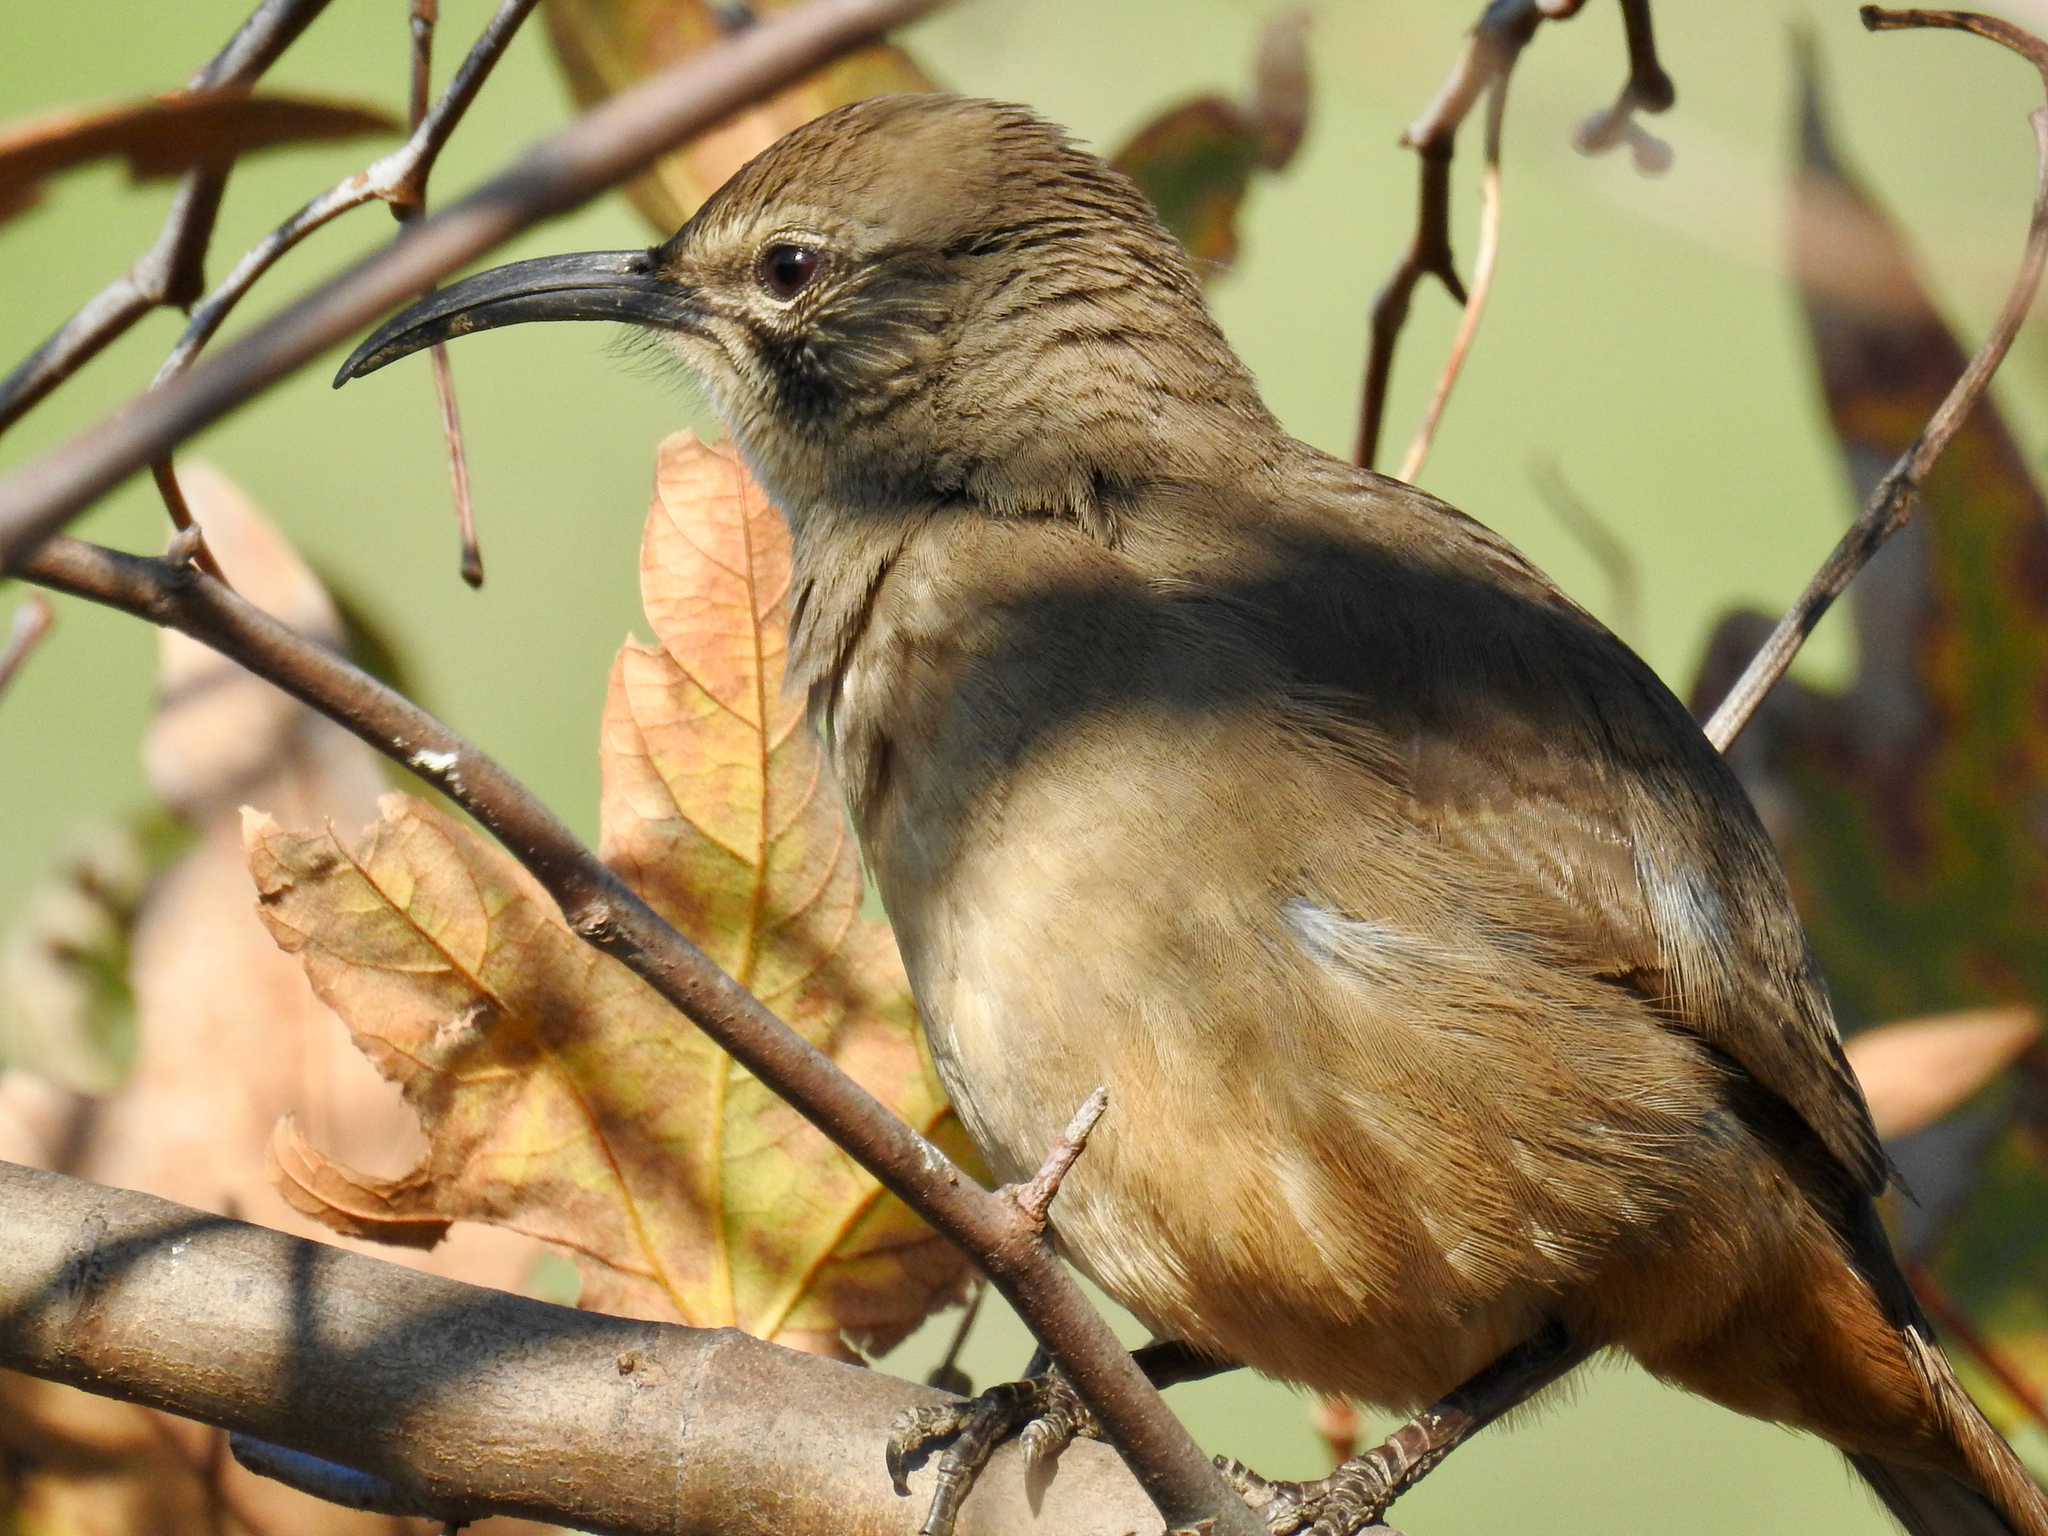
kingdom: Animalia
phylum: Chordata
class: Aves
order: Passeriformes
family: Mimidae
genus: Toxostoma
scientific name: Toxostoma redivivum
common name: California thrasher
